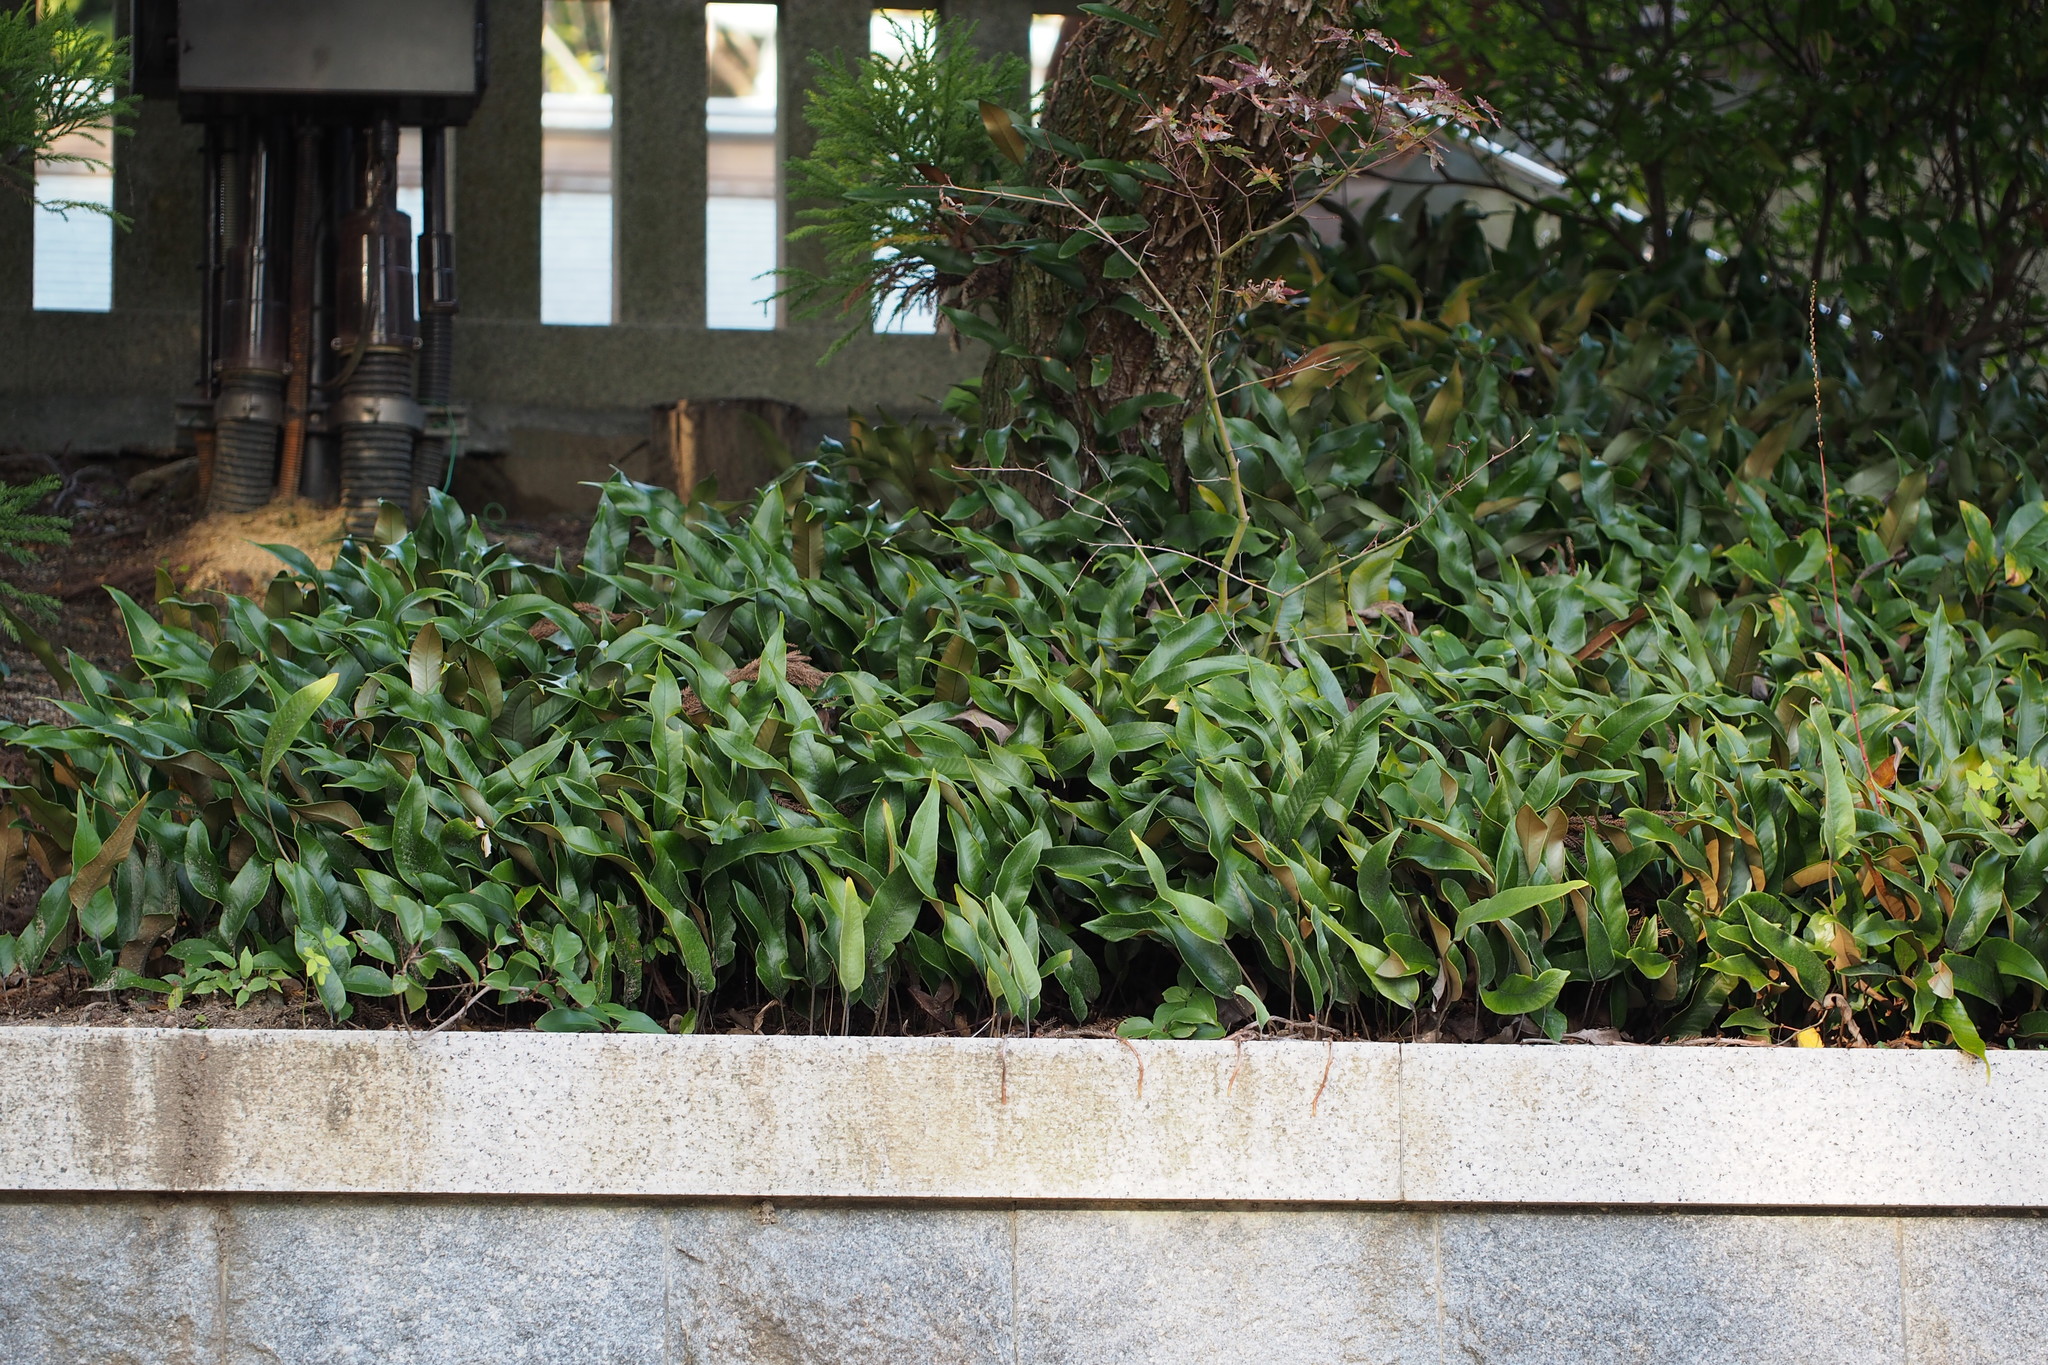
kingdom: Plantae
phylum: Tracheophyta
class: Polypodiopsida
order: Polypodiales
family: Polypodiaceae
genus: Pyrrosia
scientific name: Pyrrosia lingua
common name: Felt fern
